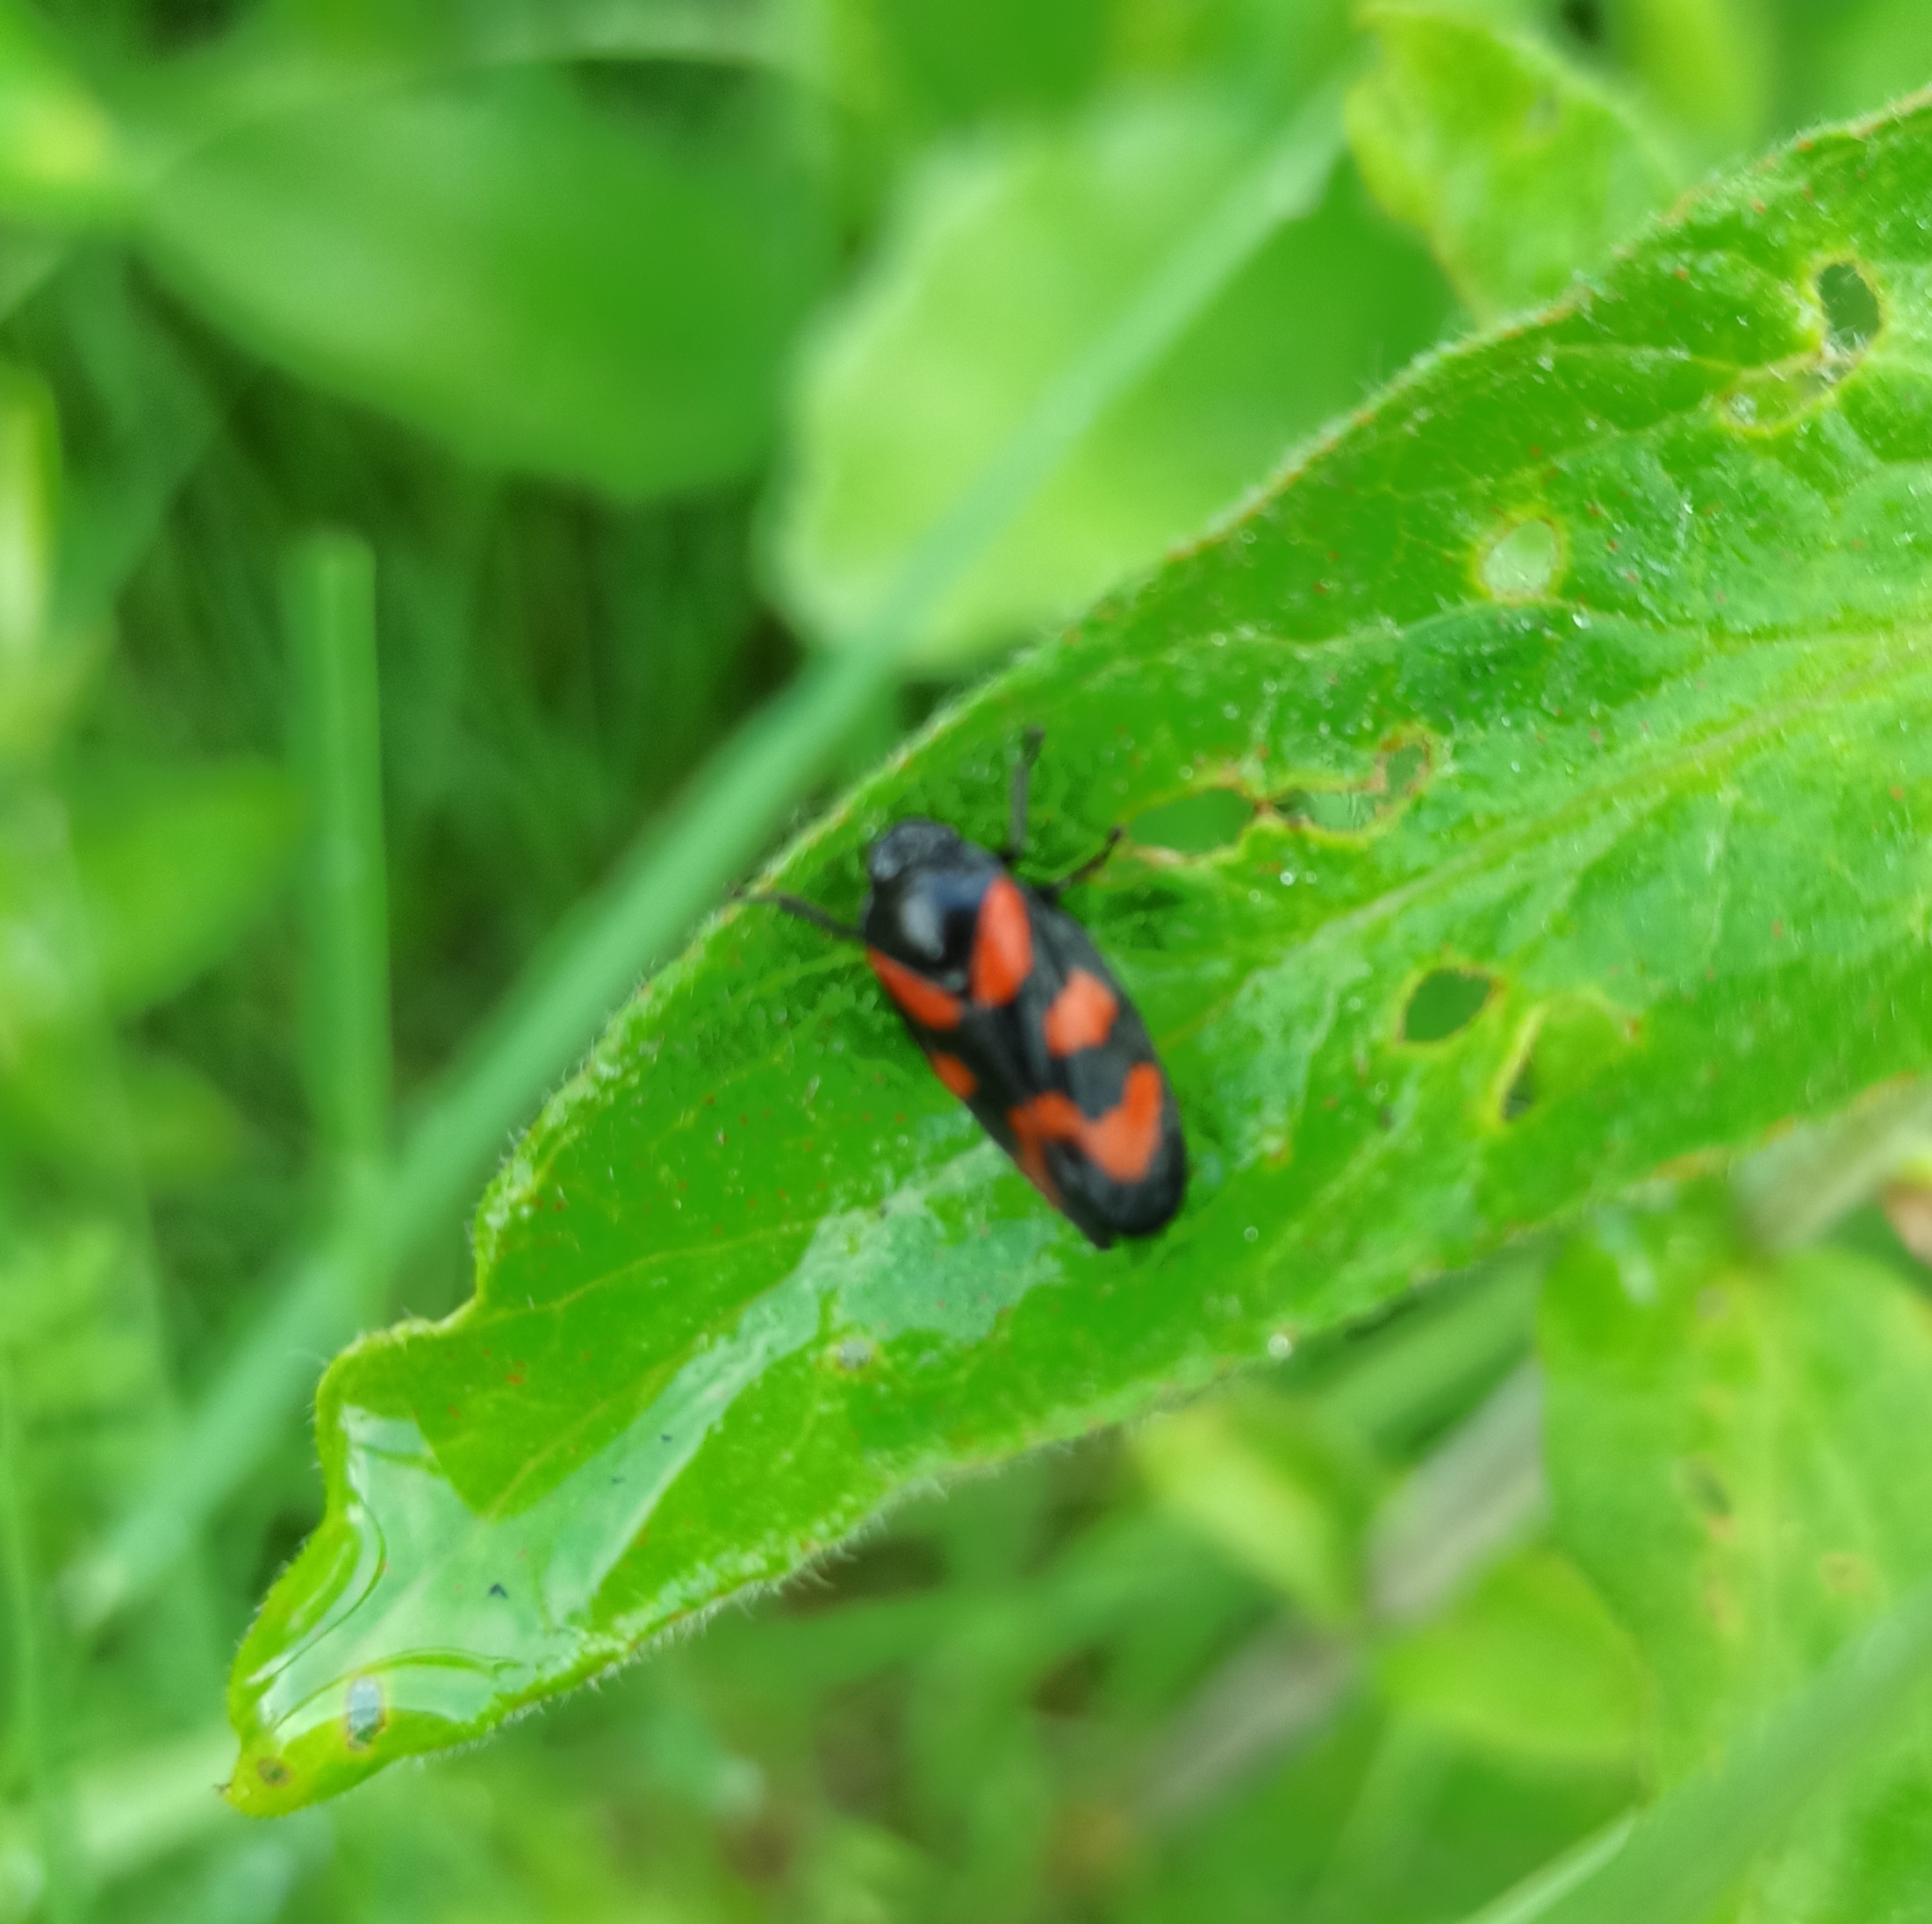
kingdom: Animalia
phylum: Arthropoda
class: Insecta
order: Hemiptera
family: Cercopidae
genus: Cercopis
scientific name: Cercopis vulnerata
